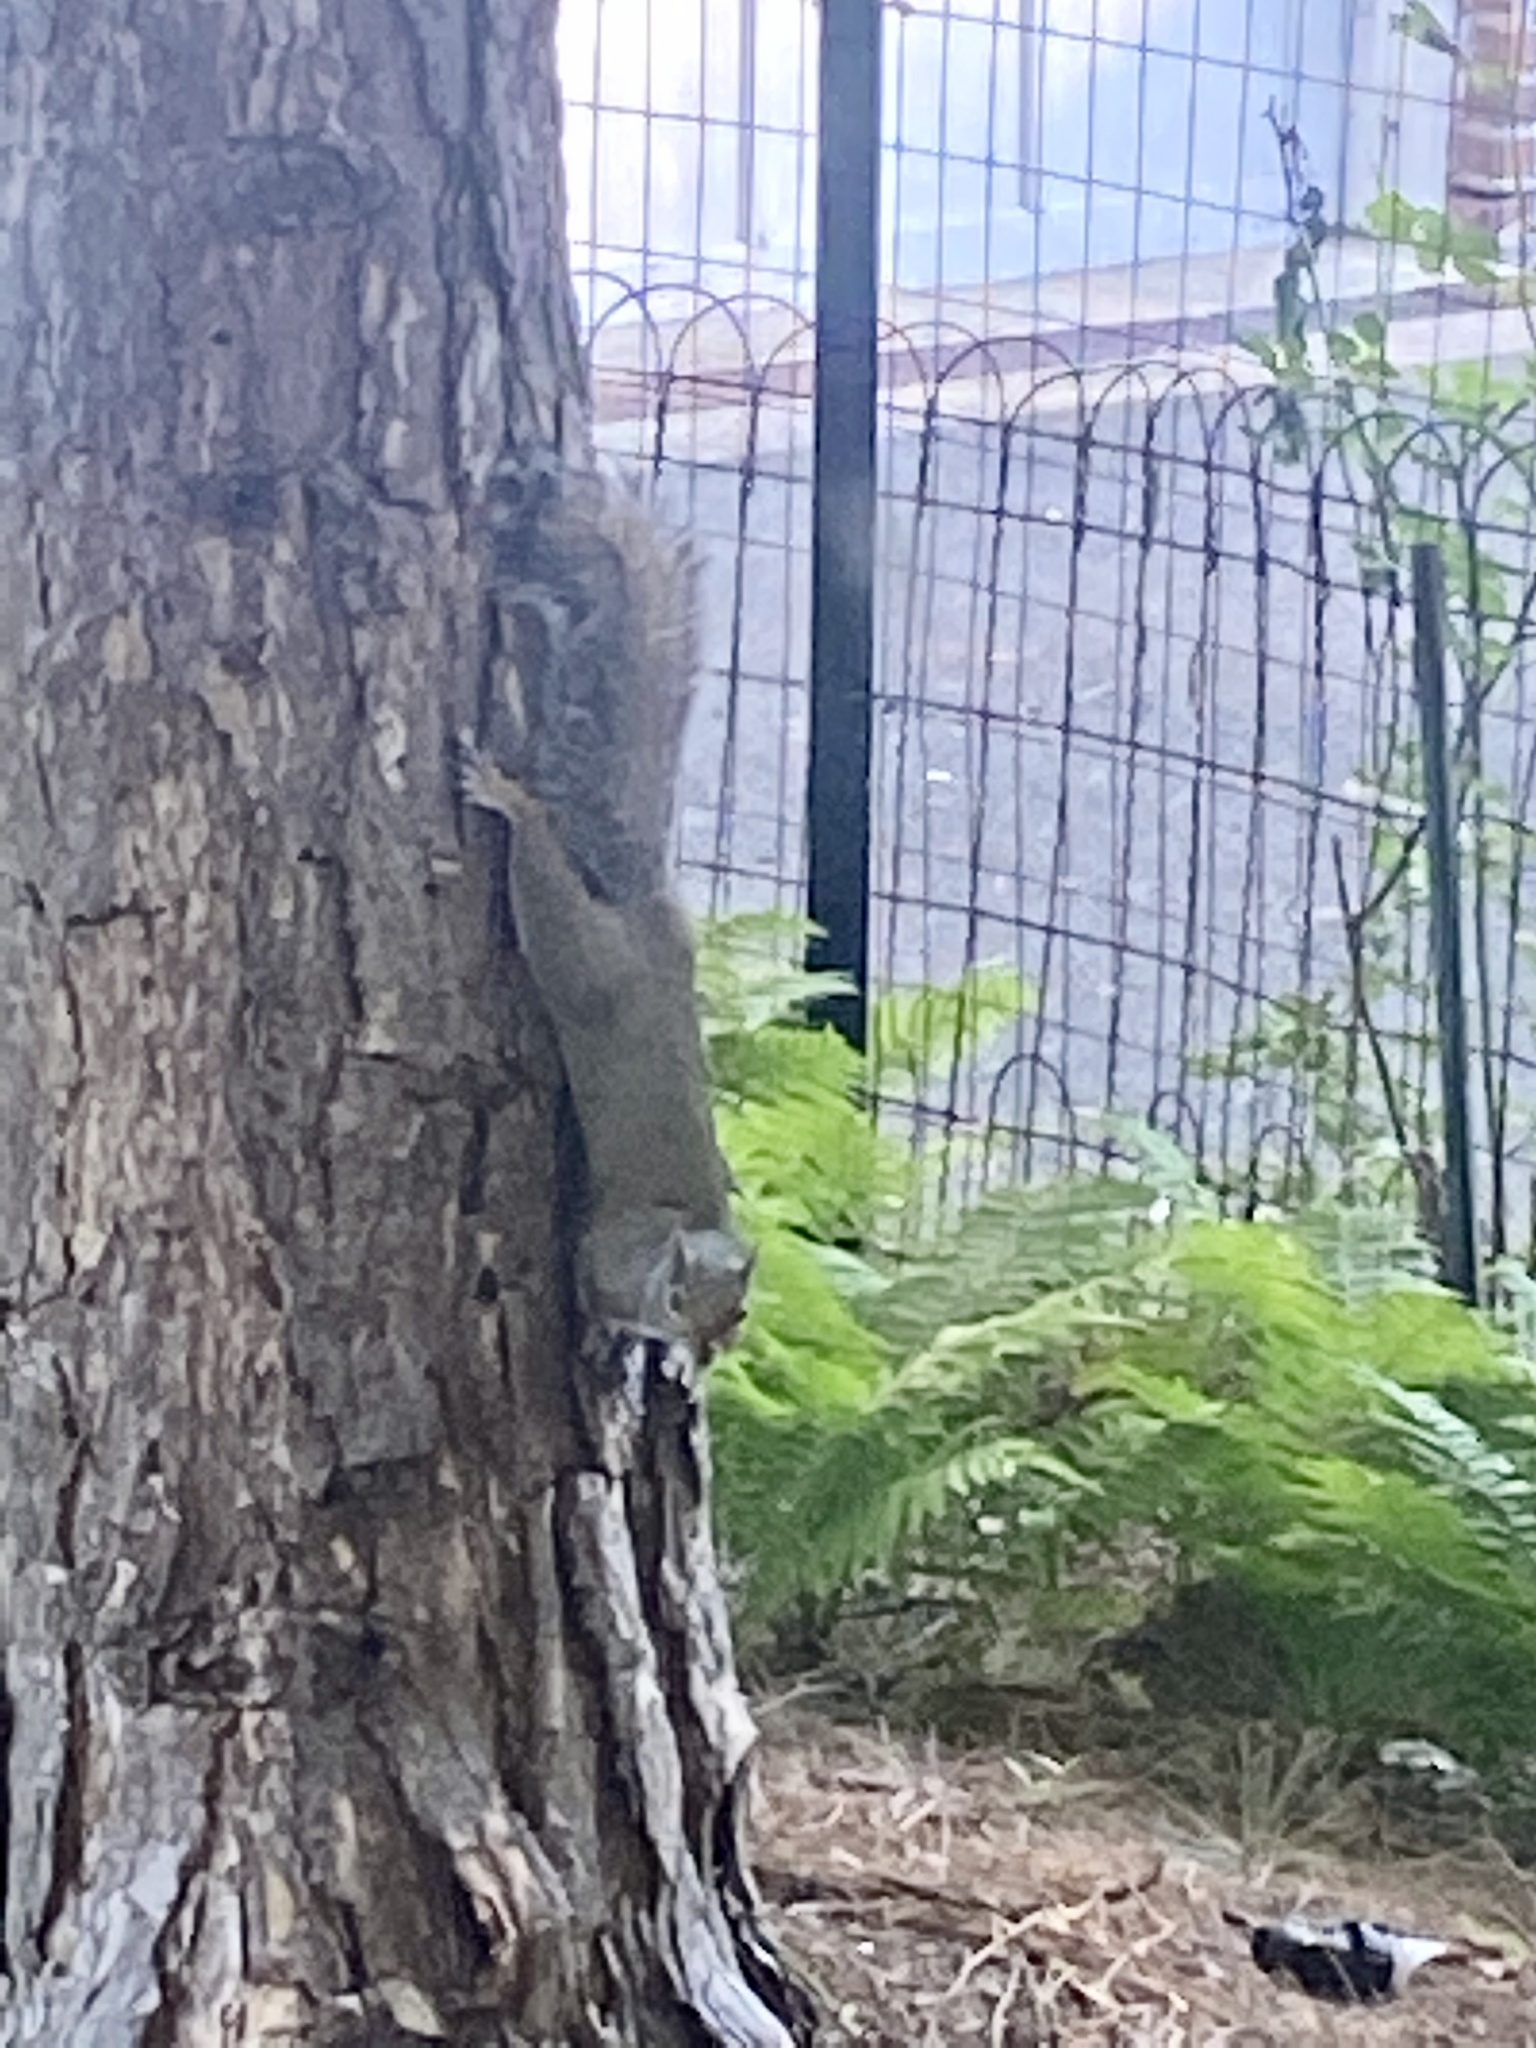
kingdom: Animalia
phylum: Chordata
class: Mammalia
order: Rodentia
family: Sciuridae
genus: Sciurus
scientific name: Sciurus carolinensis
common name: Eastern gray squirrel
